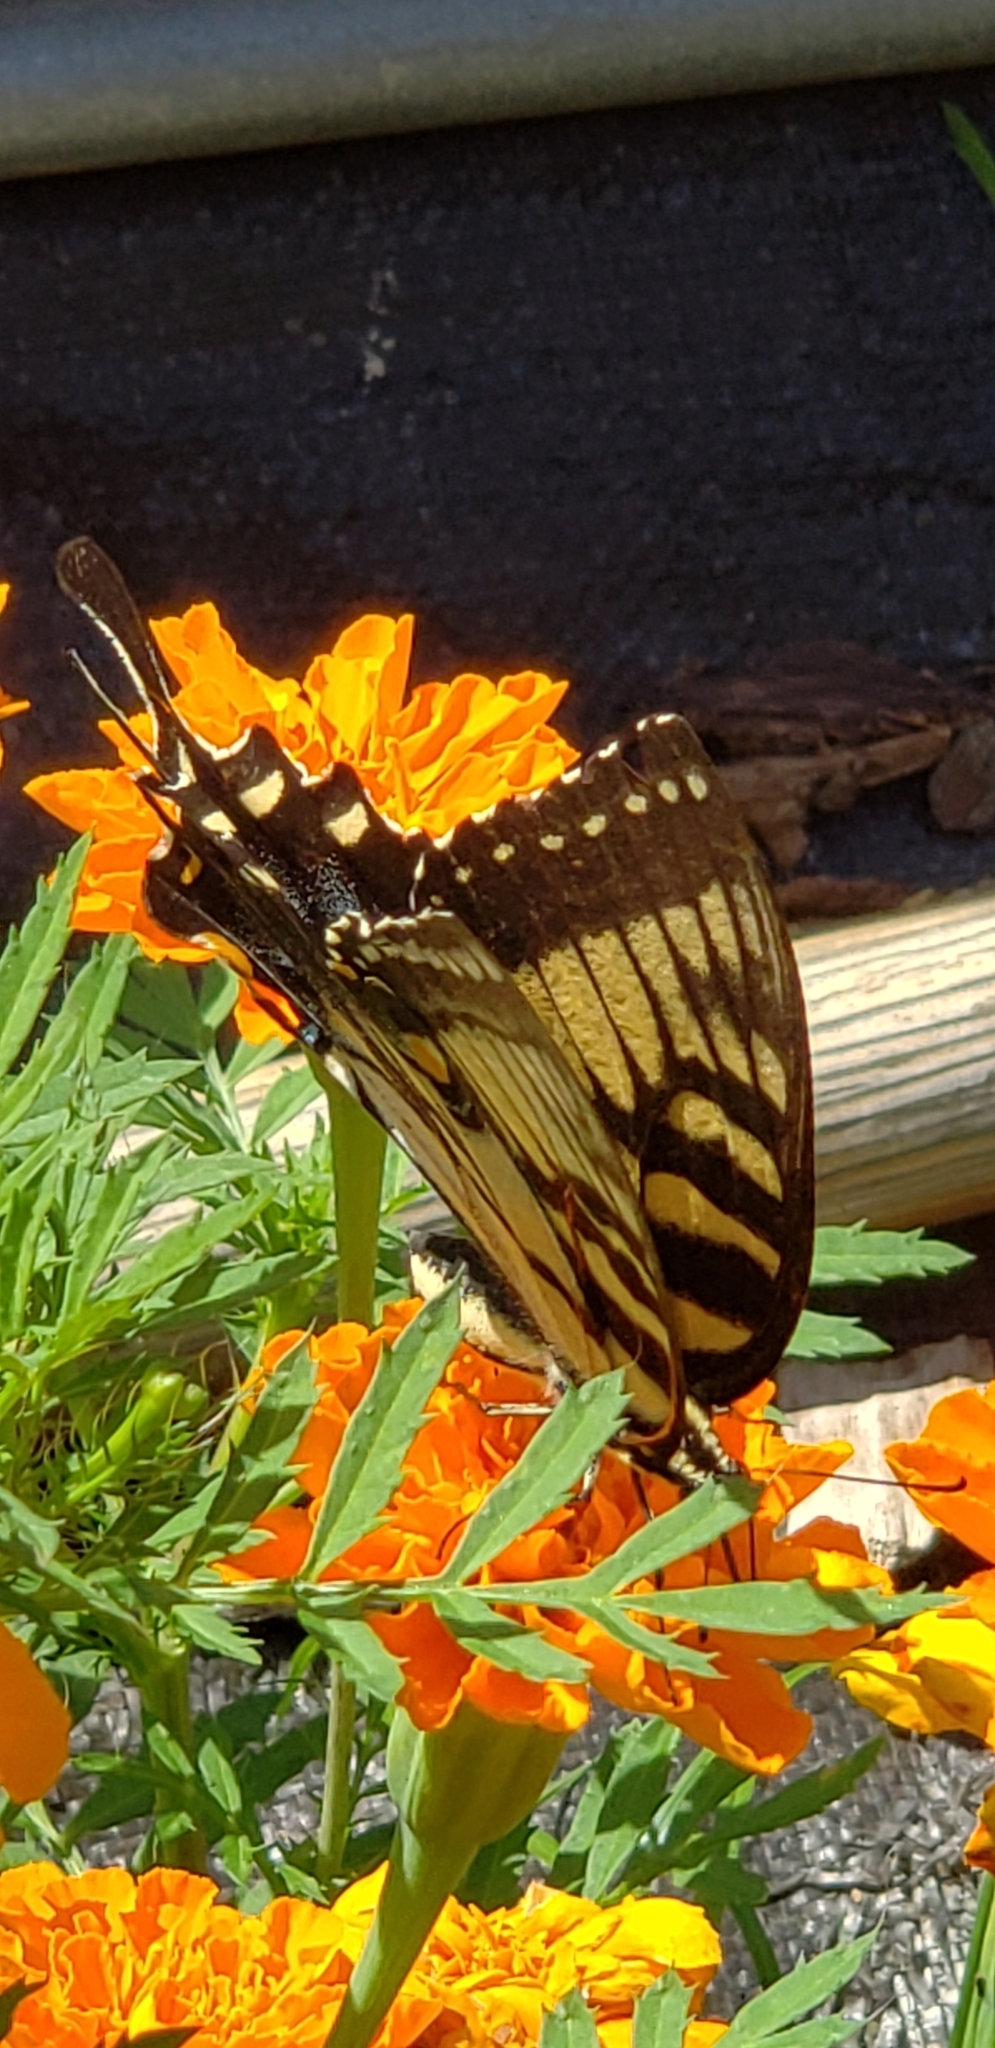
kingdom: Animalia
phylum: Arthropoda
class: Insecta
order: Lepidoptera
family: Papilionidae
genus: Papilio
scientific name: Papilio glaucus
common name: Tiger swallowtail
